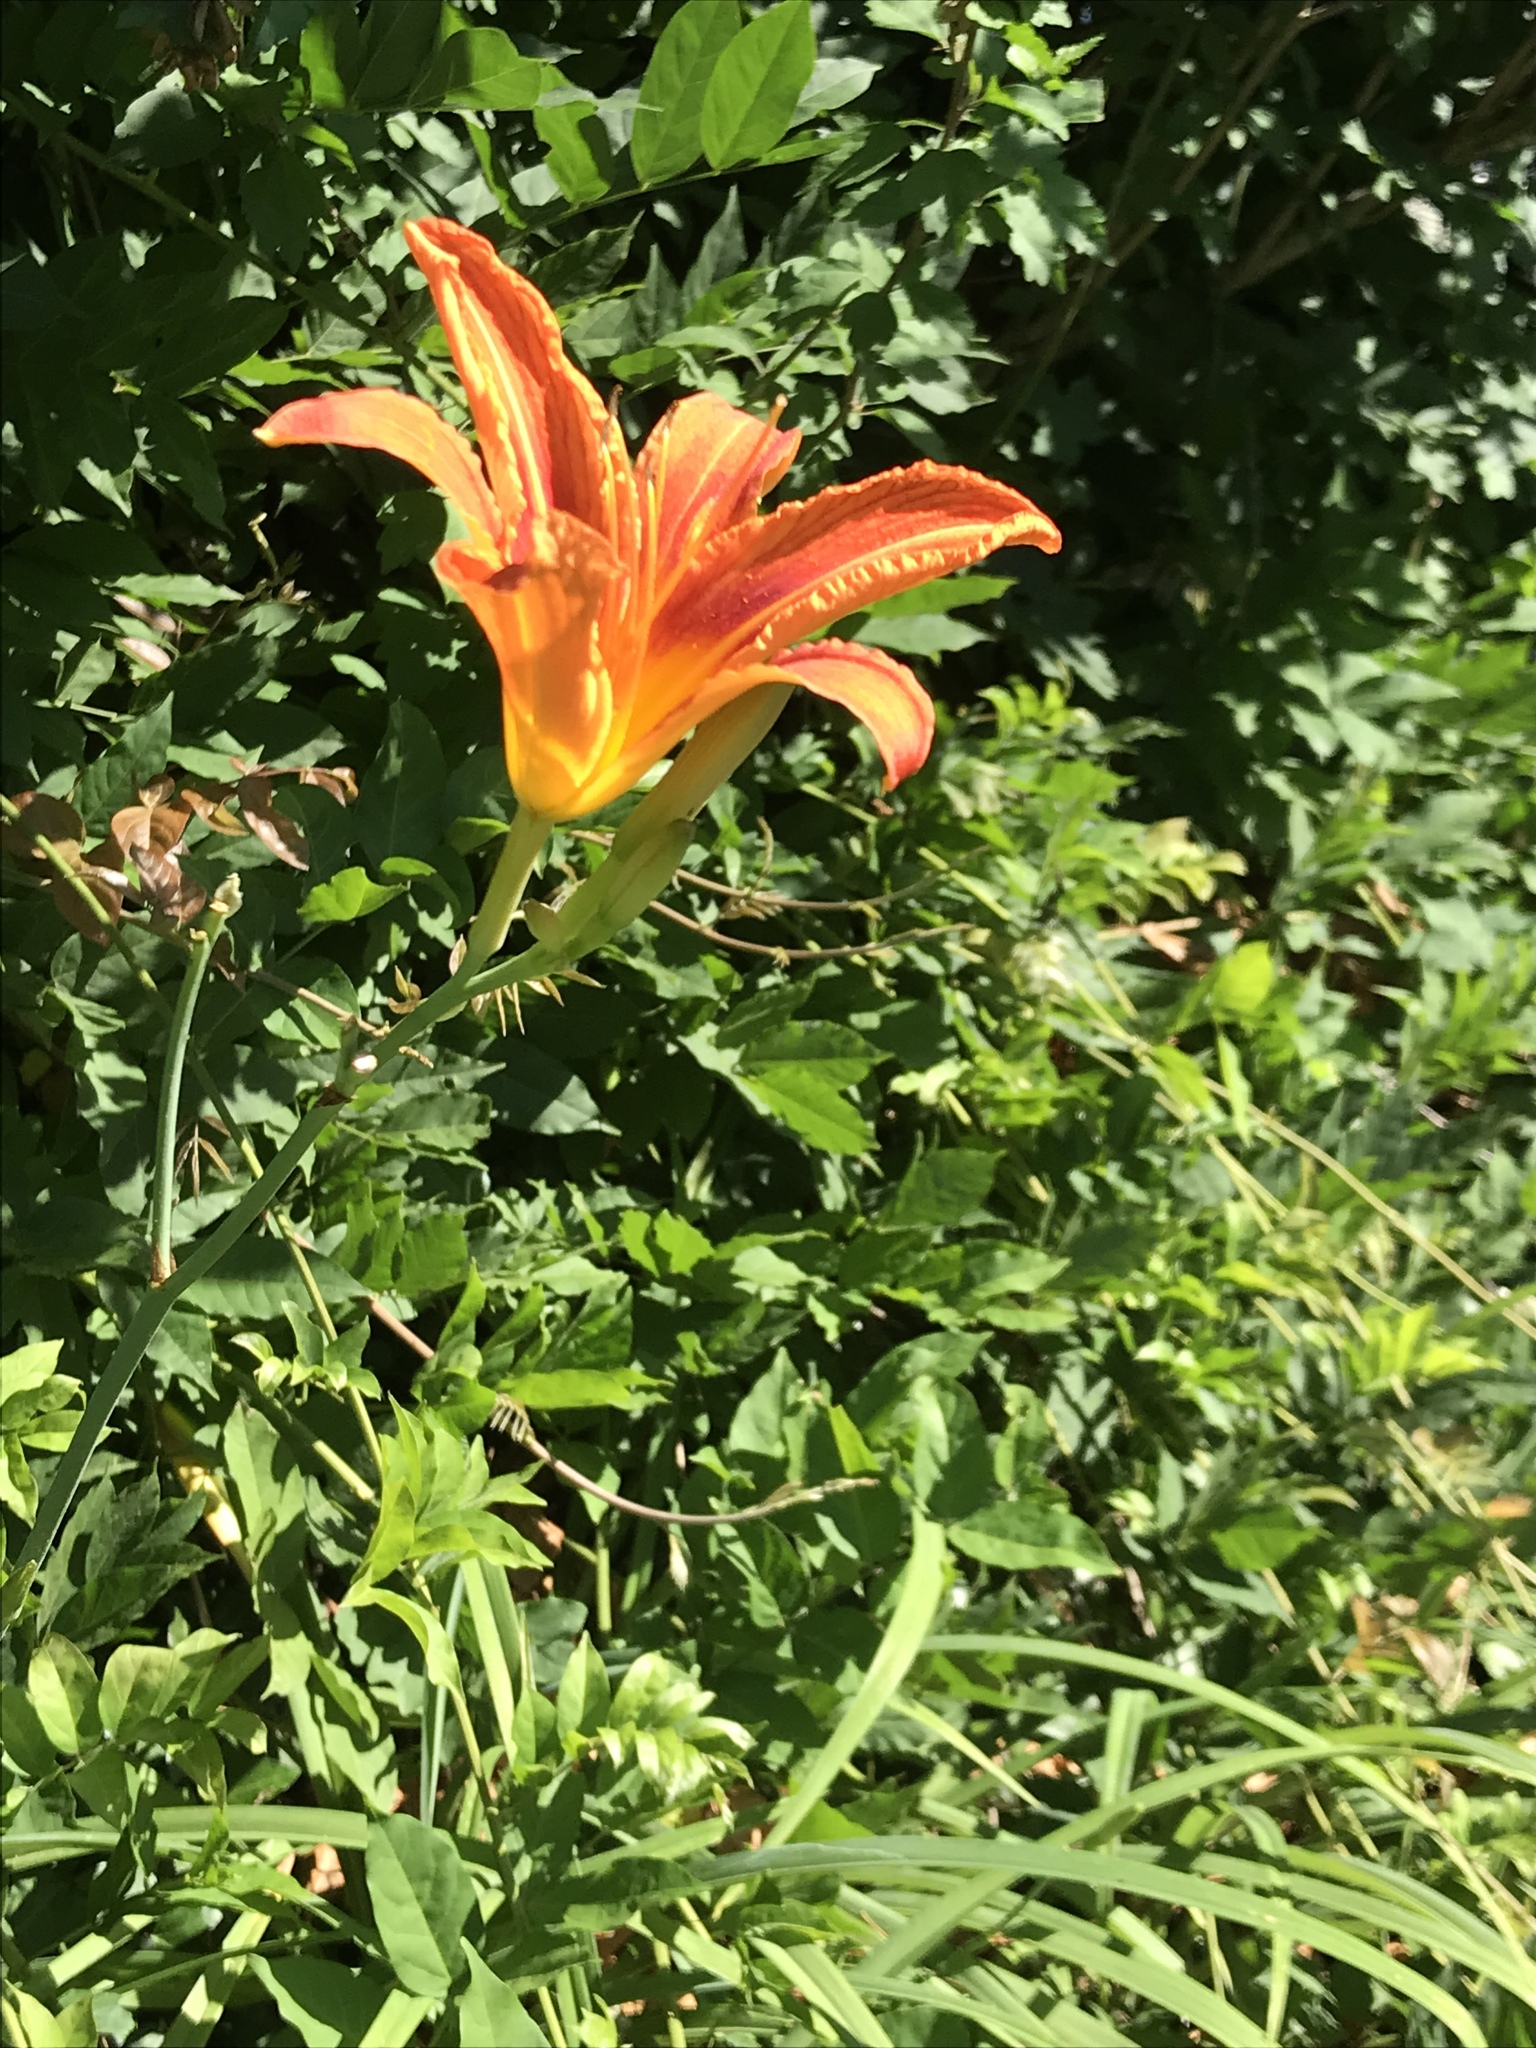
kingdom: Plantae
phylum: Tracheophyta
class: Liliopsida
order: Asparagales
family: Asphodelaceae
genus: Hemerocallis
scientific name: Hemerocallis fulva
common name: Orange day-lily
